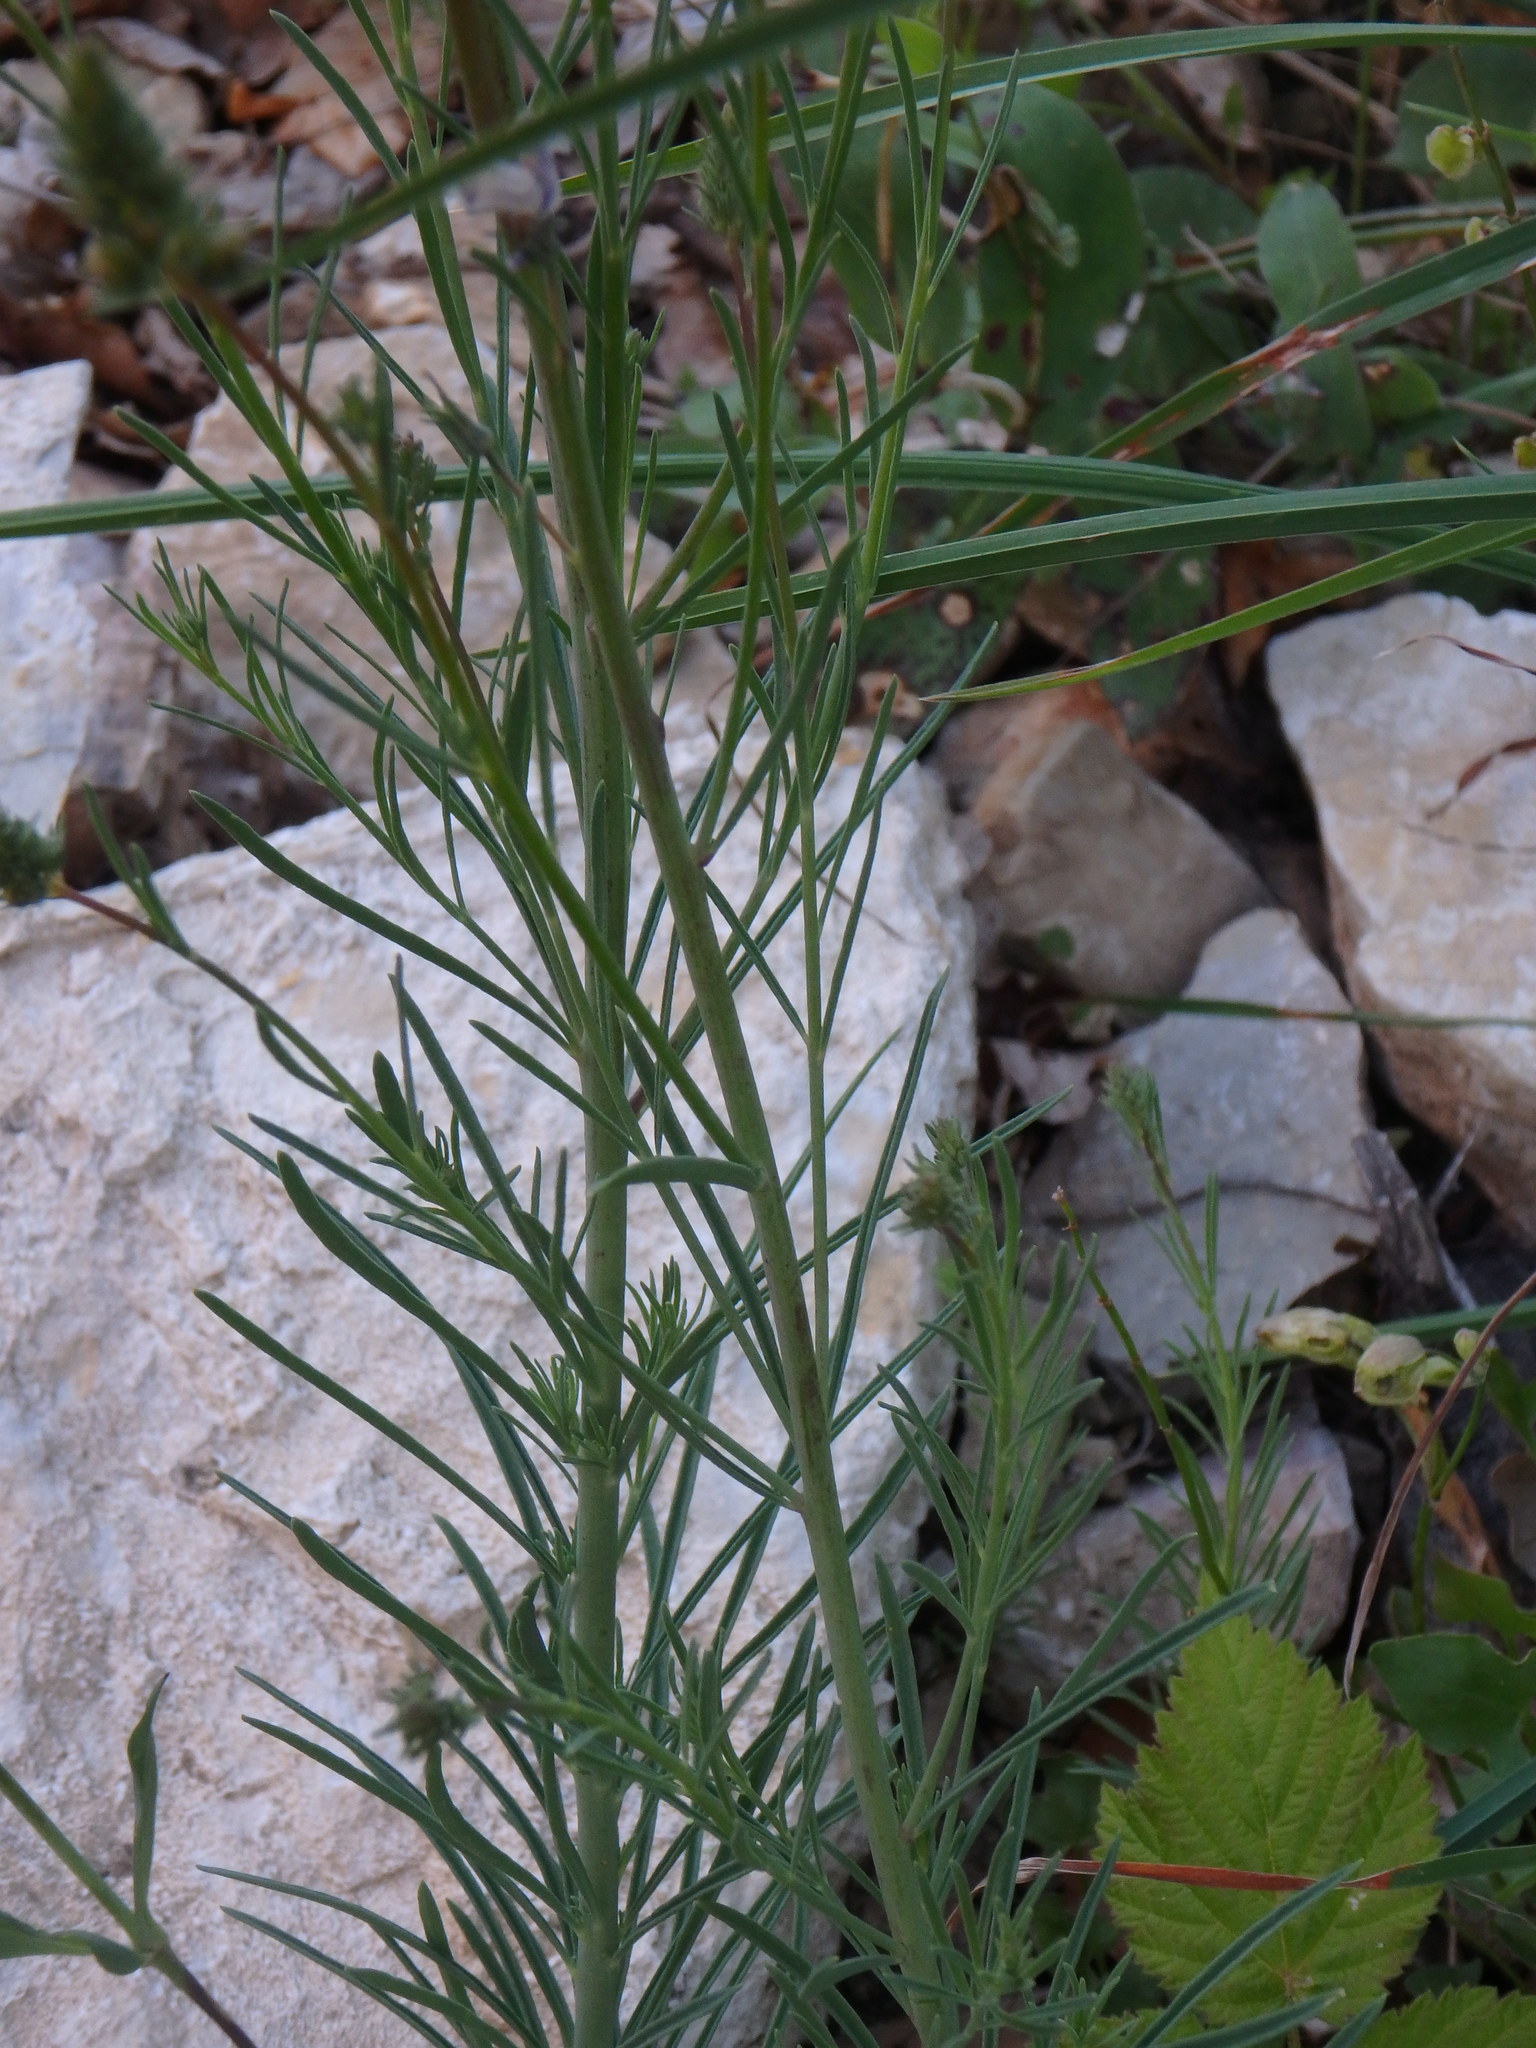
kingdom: Plantae
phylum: Tracheophyta
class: Magnoliopsida
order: Lamiales
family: Plantaginaceae
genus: Linaria
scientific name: Linaria repens
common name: Pale toadflax
